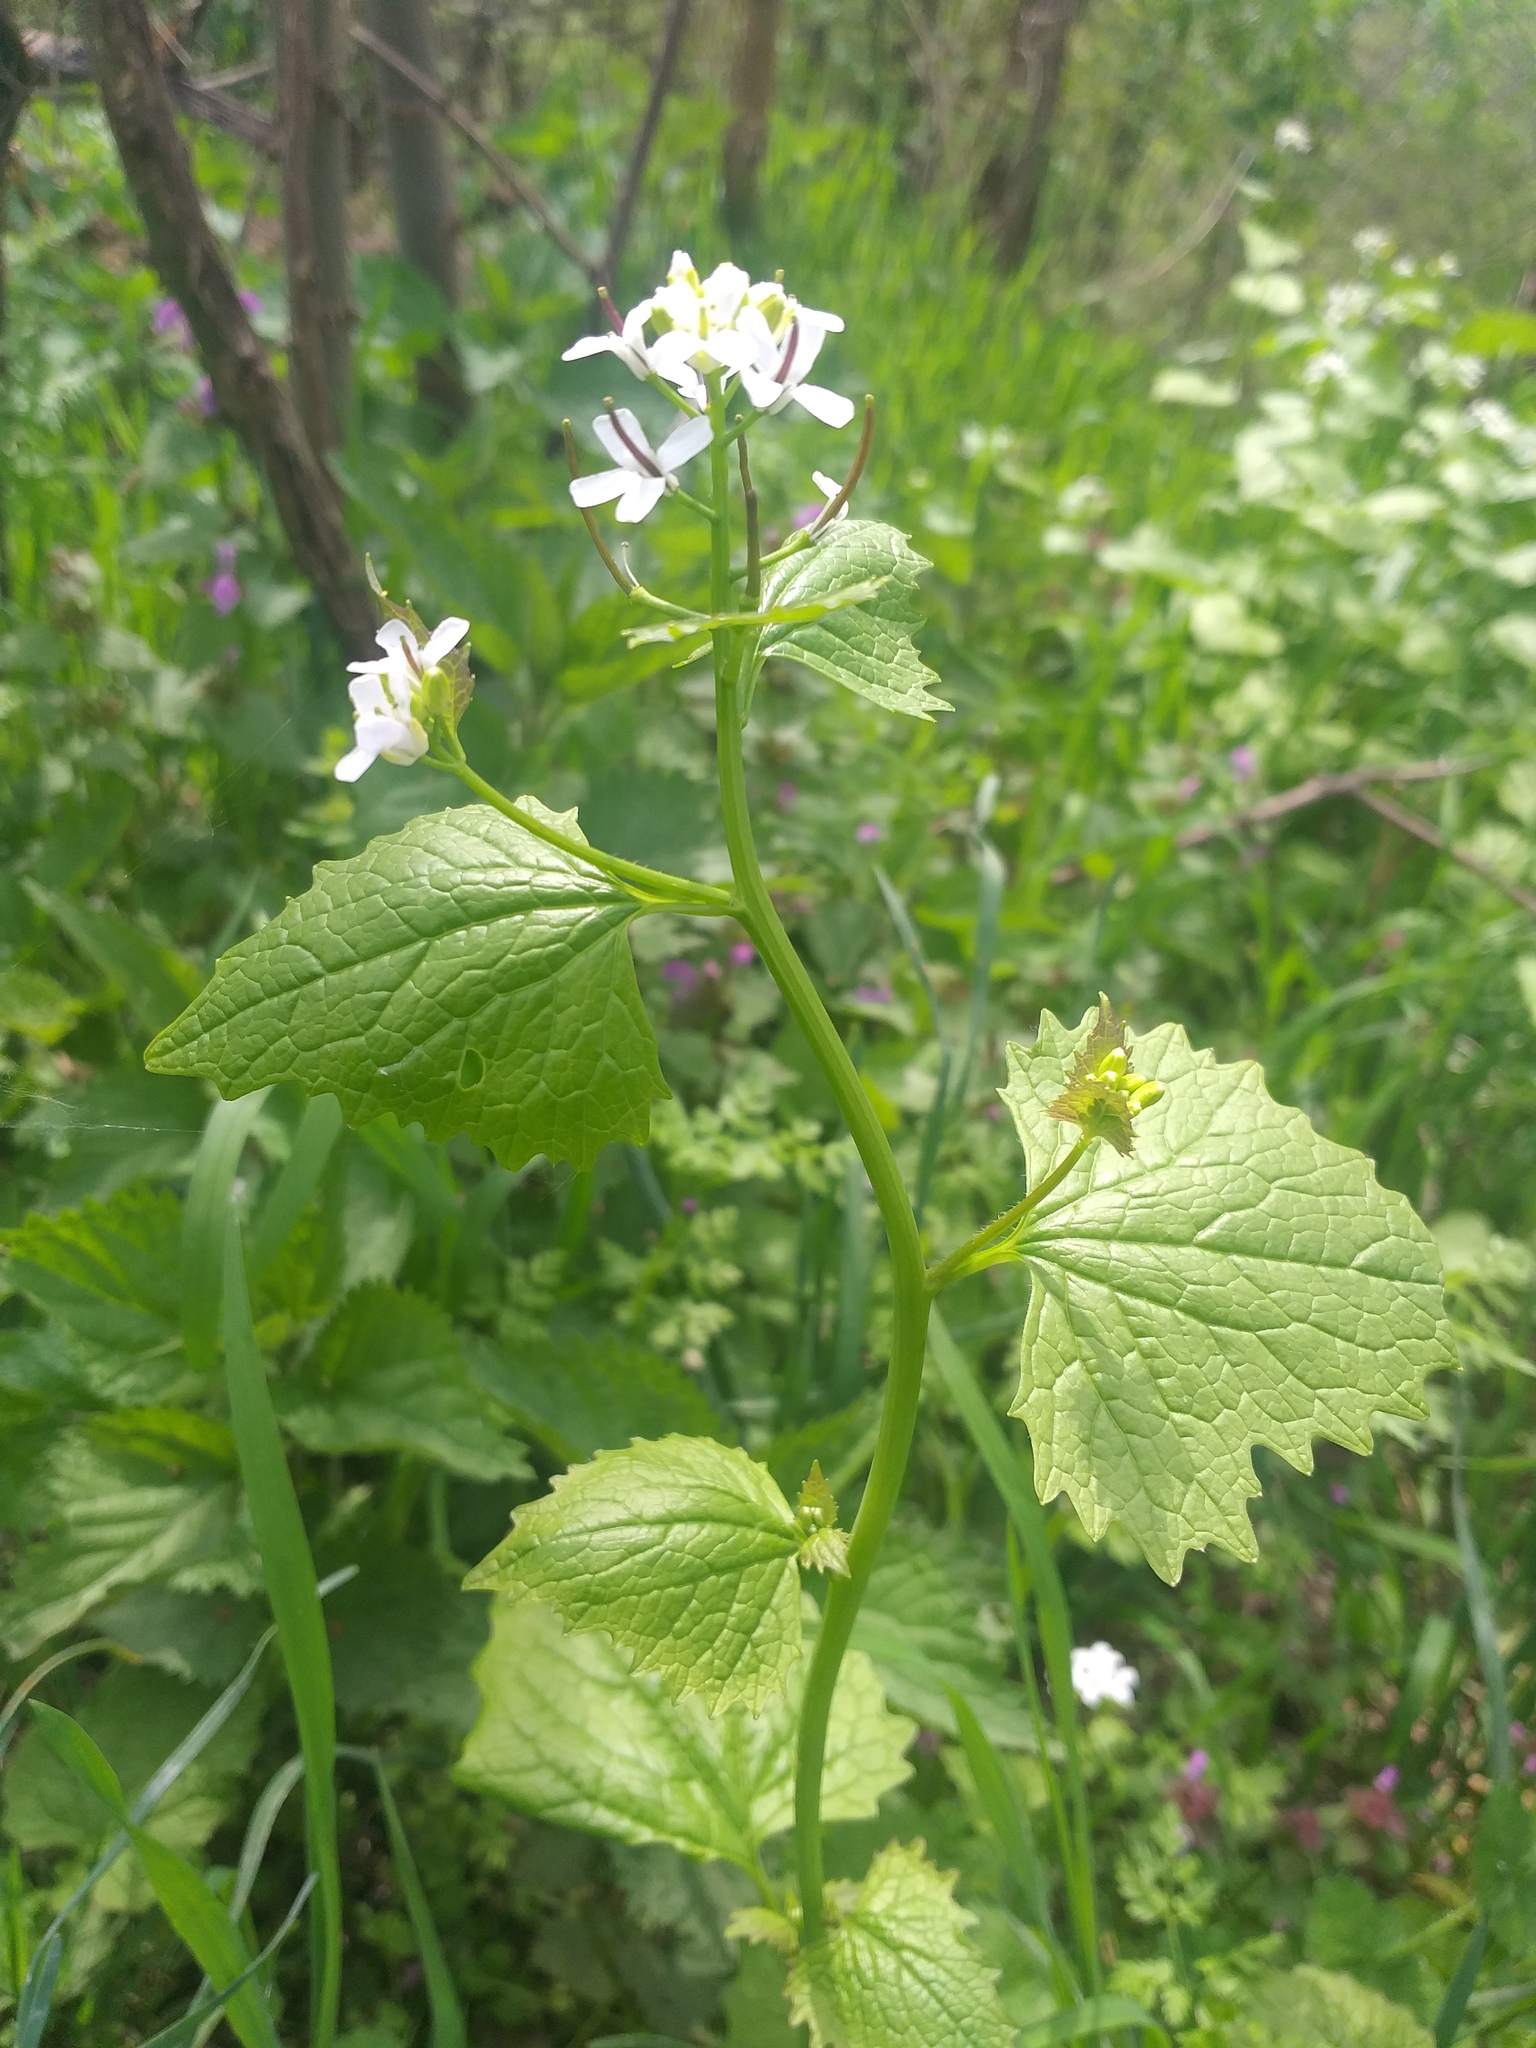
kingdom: Plantae
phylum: Tracheophyta
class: Magnoliopsida
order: Brassicales
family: Brassicaceae
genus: Alliaria
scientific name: Alliaria petiolata
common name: Garlic mustard
